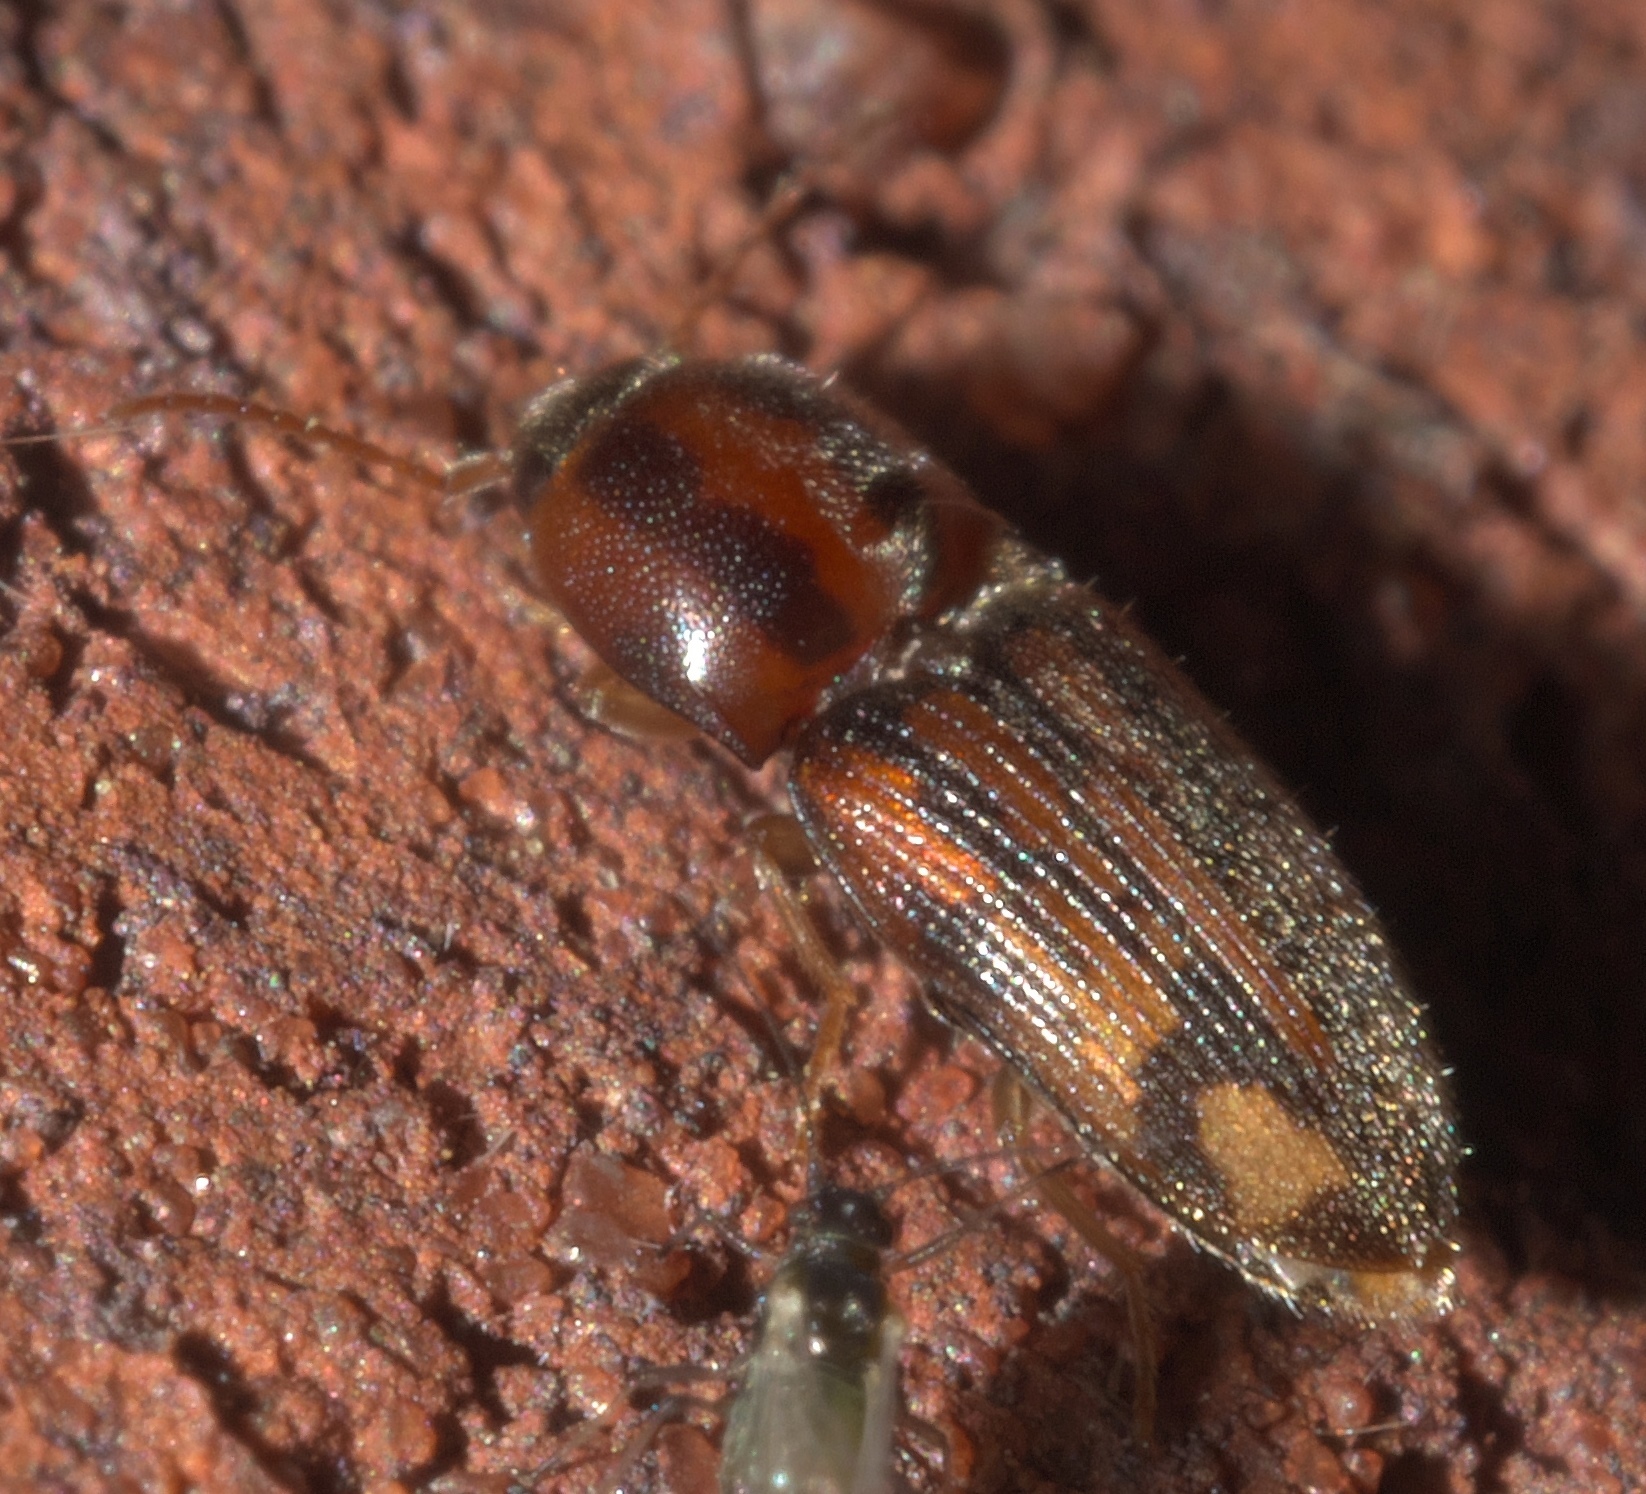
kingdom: Animalia
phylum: Arthropoda
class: Insecta
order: Coleoptera
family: Elateridae
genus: Monocrepidius
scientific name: Monocrepidius bellus
